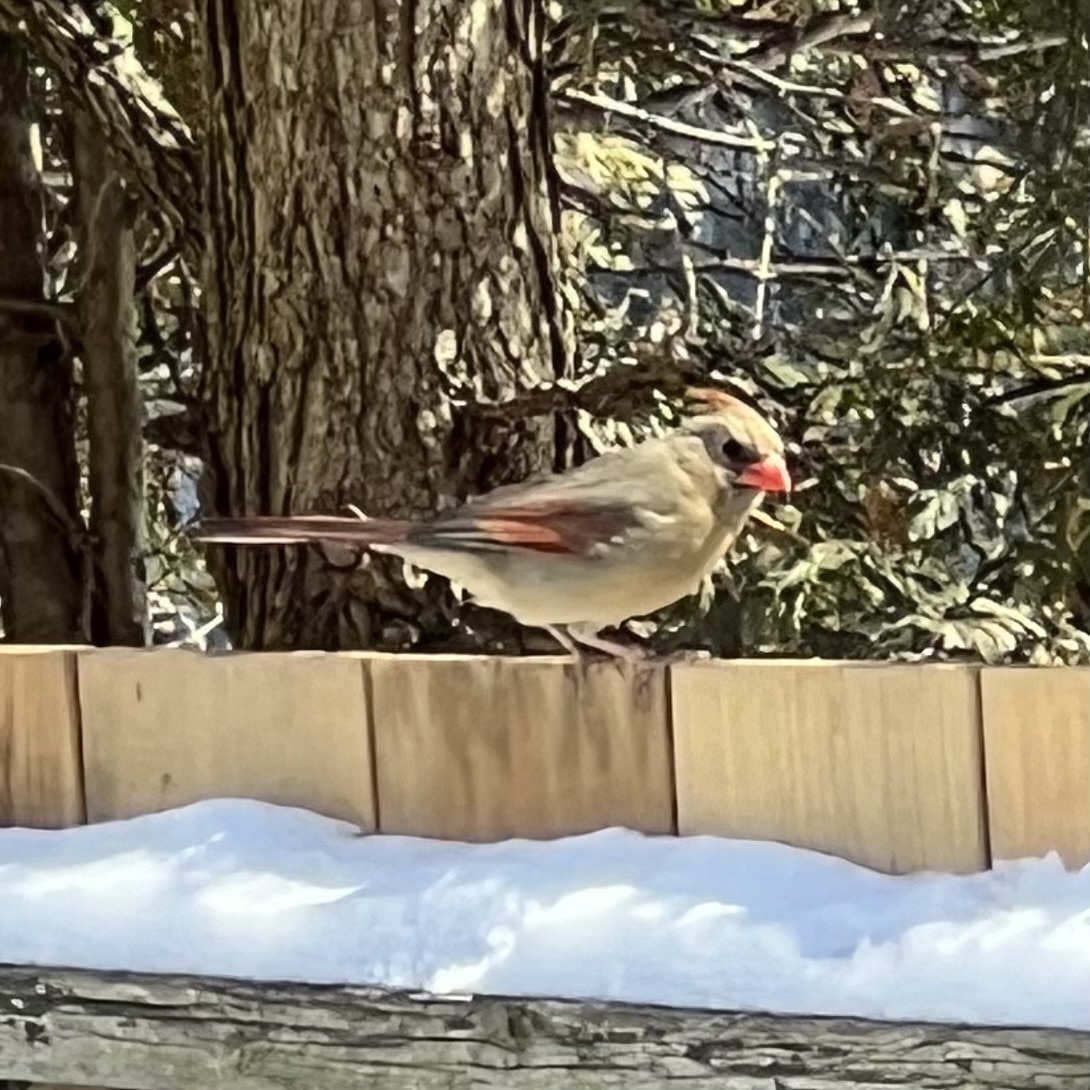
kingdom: Animalia
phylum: Chordata
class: Aves
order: Passeriformes
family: Cardinalidae
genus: Cardinalis
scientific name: Cardinalis cardinalis
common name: Northern cardinal
